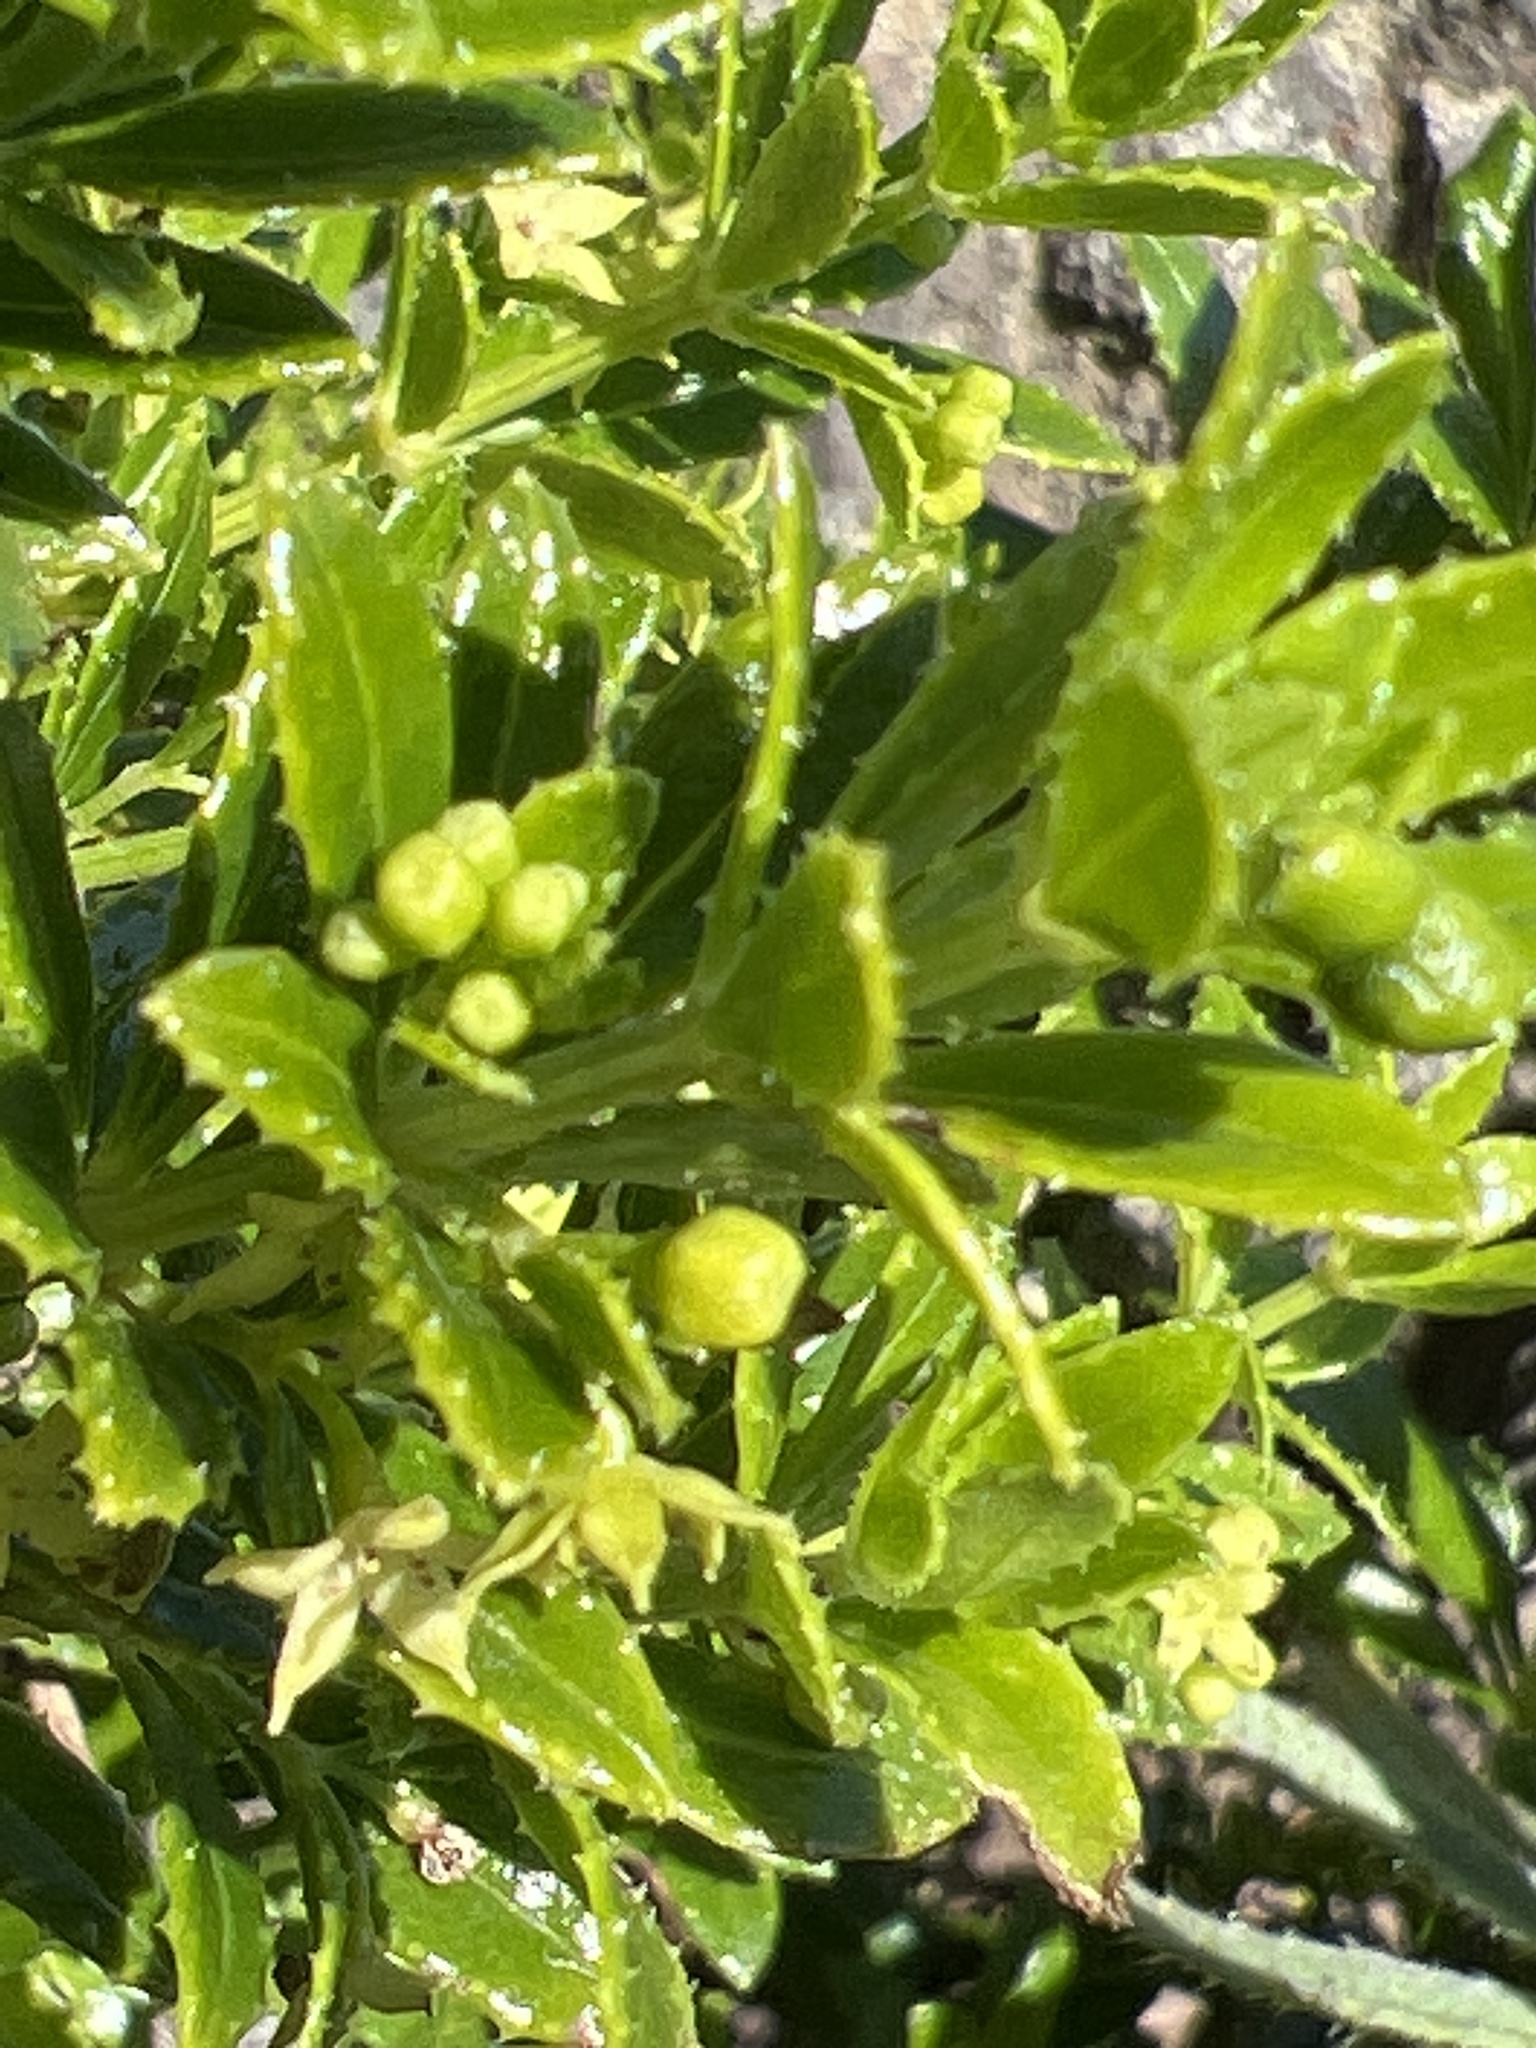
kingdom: Plantae
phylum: Tracheophyta
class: Magnoliopsida
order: Gentianales
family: Rubiaceae
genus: Rubia
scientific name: Rubia fruticosa
